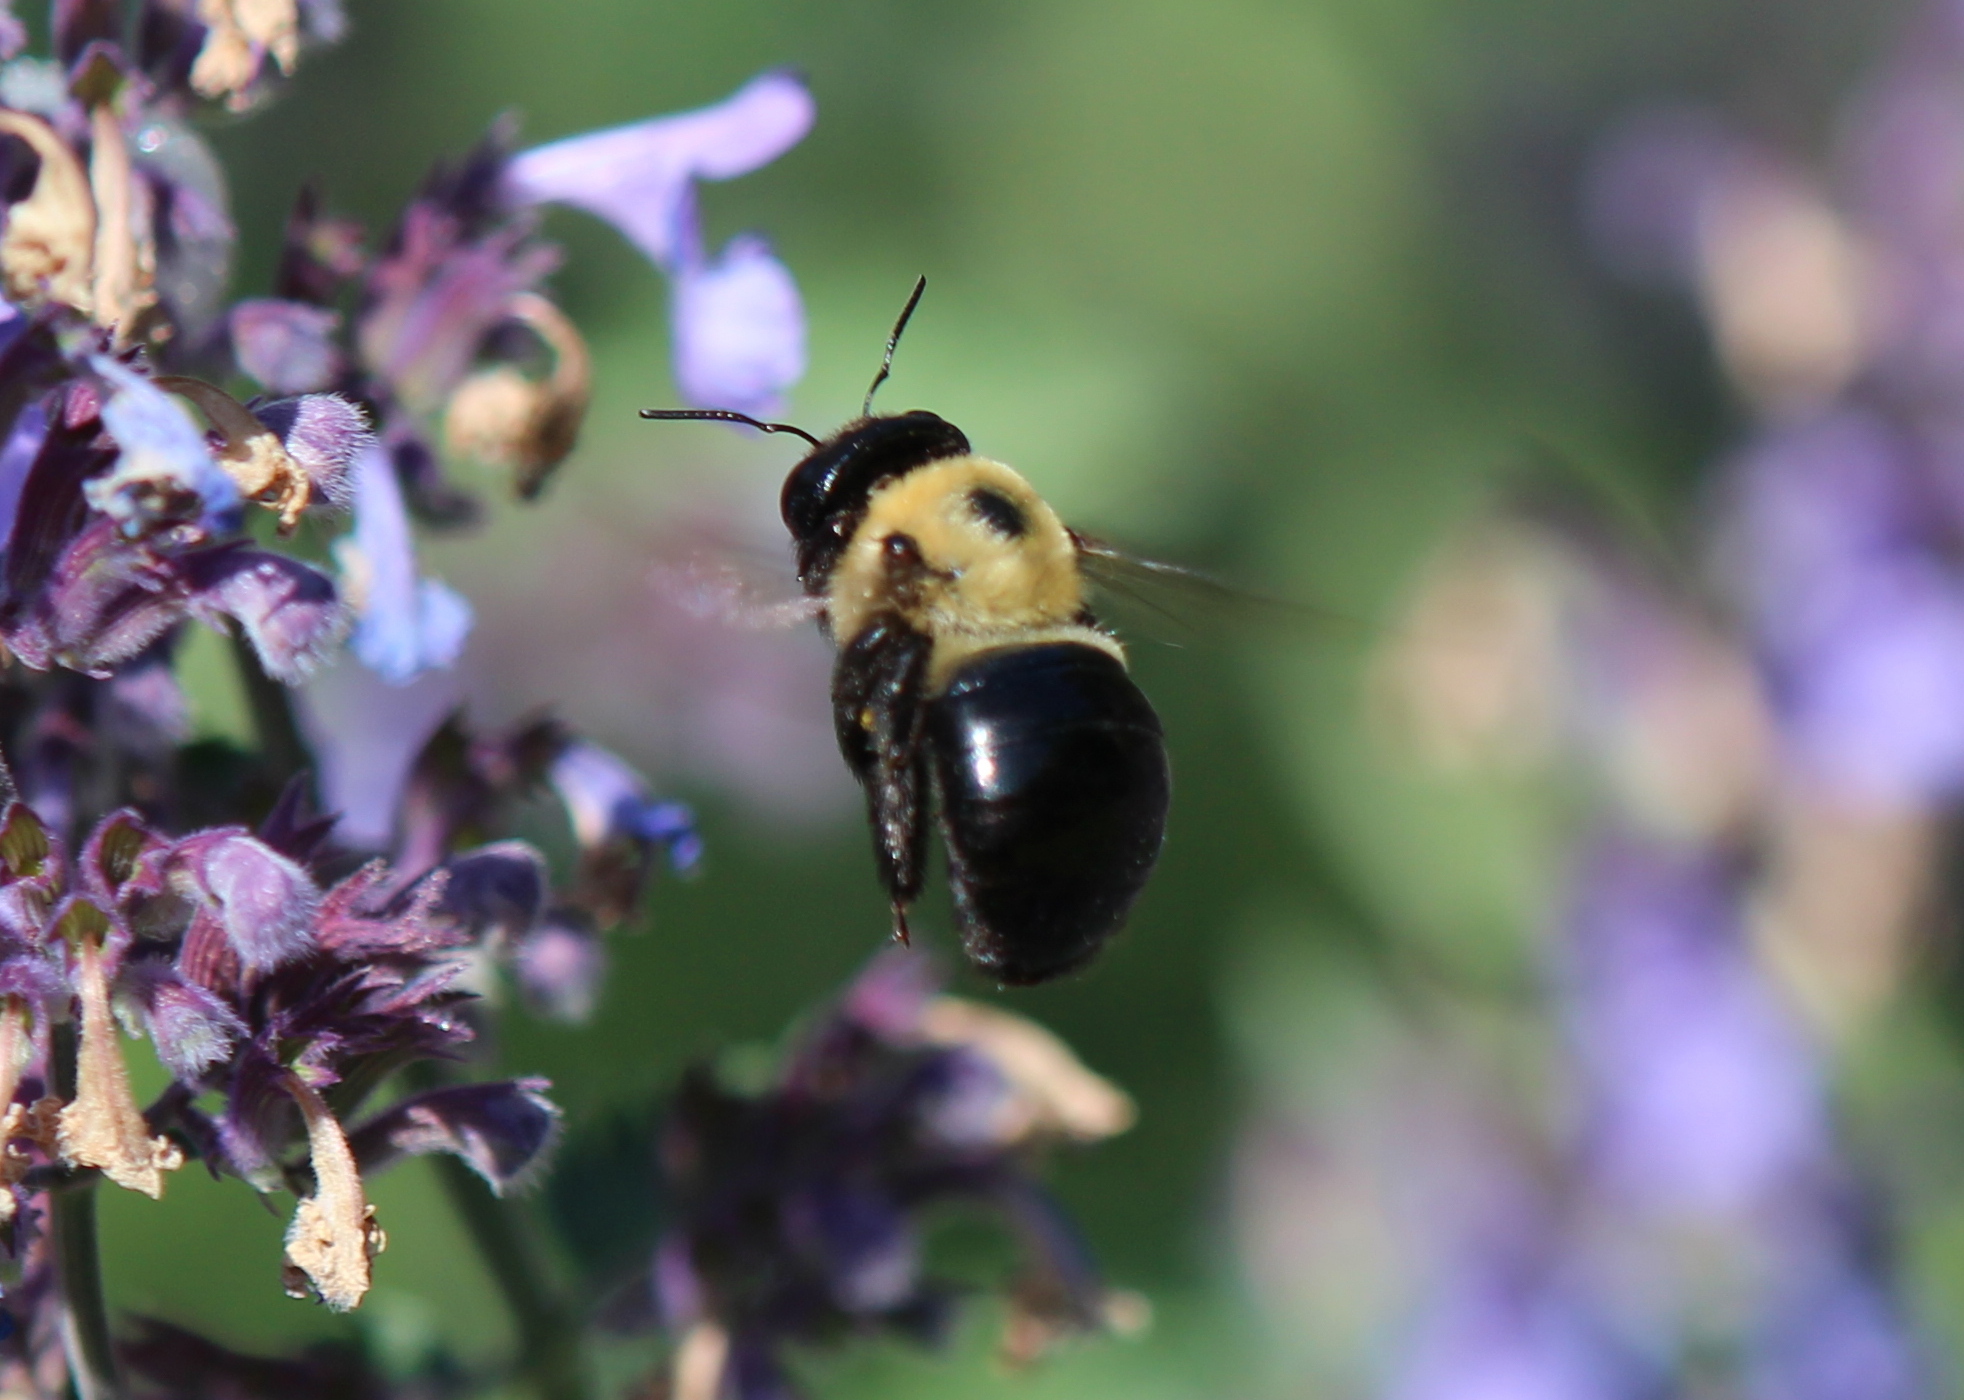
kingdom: Animalia
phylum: Arthropoda
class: Insecta
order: Hymenoptera
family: Apidae
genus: Xylocopa
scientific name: Xylocopa virginica
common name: Carpenter bee
